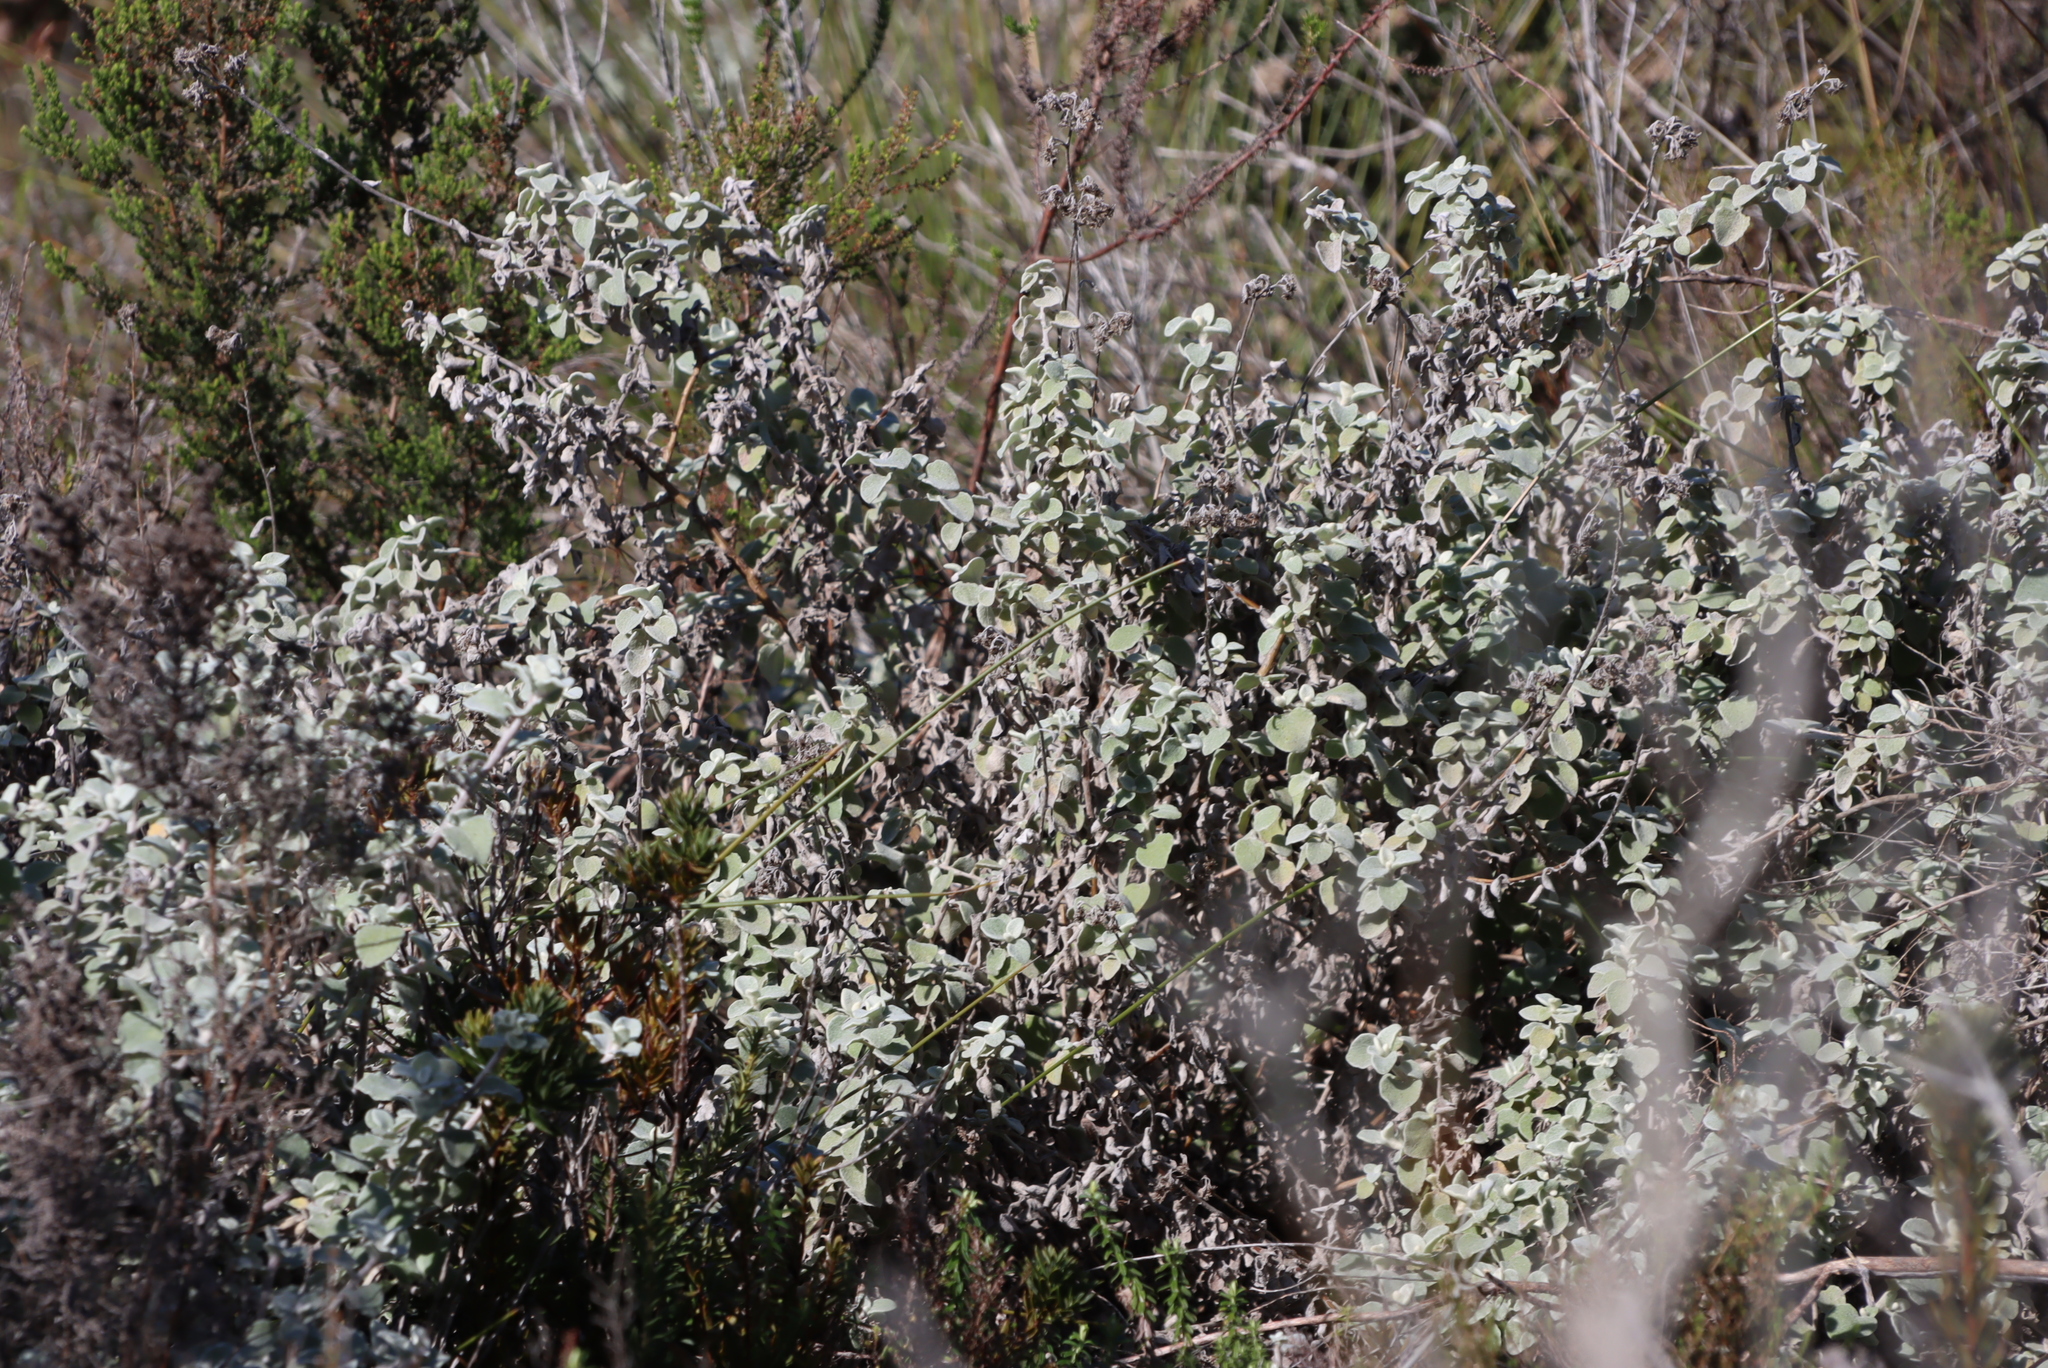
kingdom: Plantae
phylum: Tracheophyta
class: Magnoliopsida
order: Asterales
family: Asteraceae
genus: Helichrysum
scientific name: Helichrysum petiolare
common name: Licorice-plant
